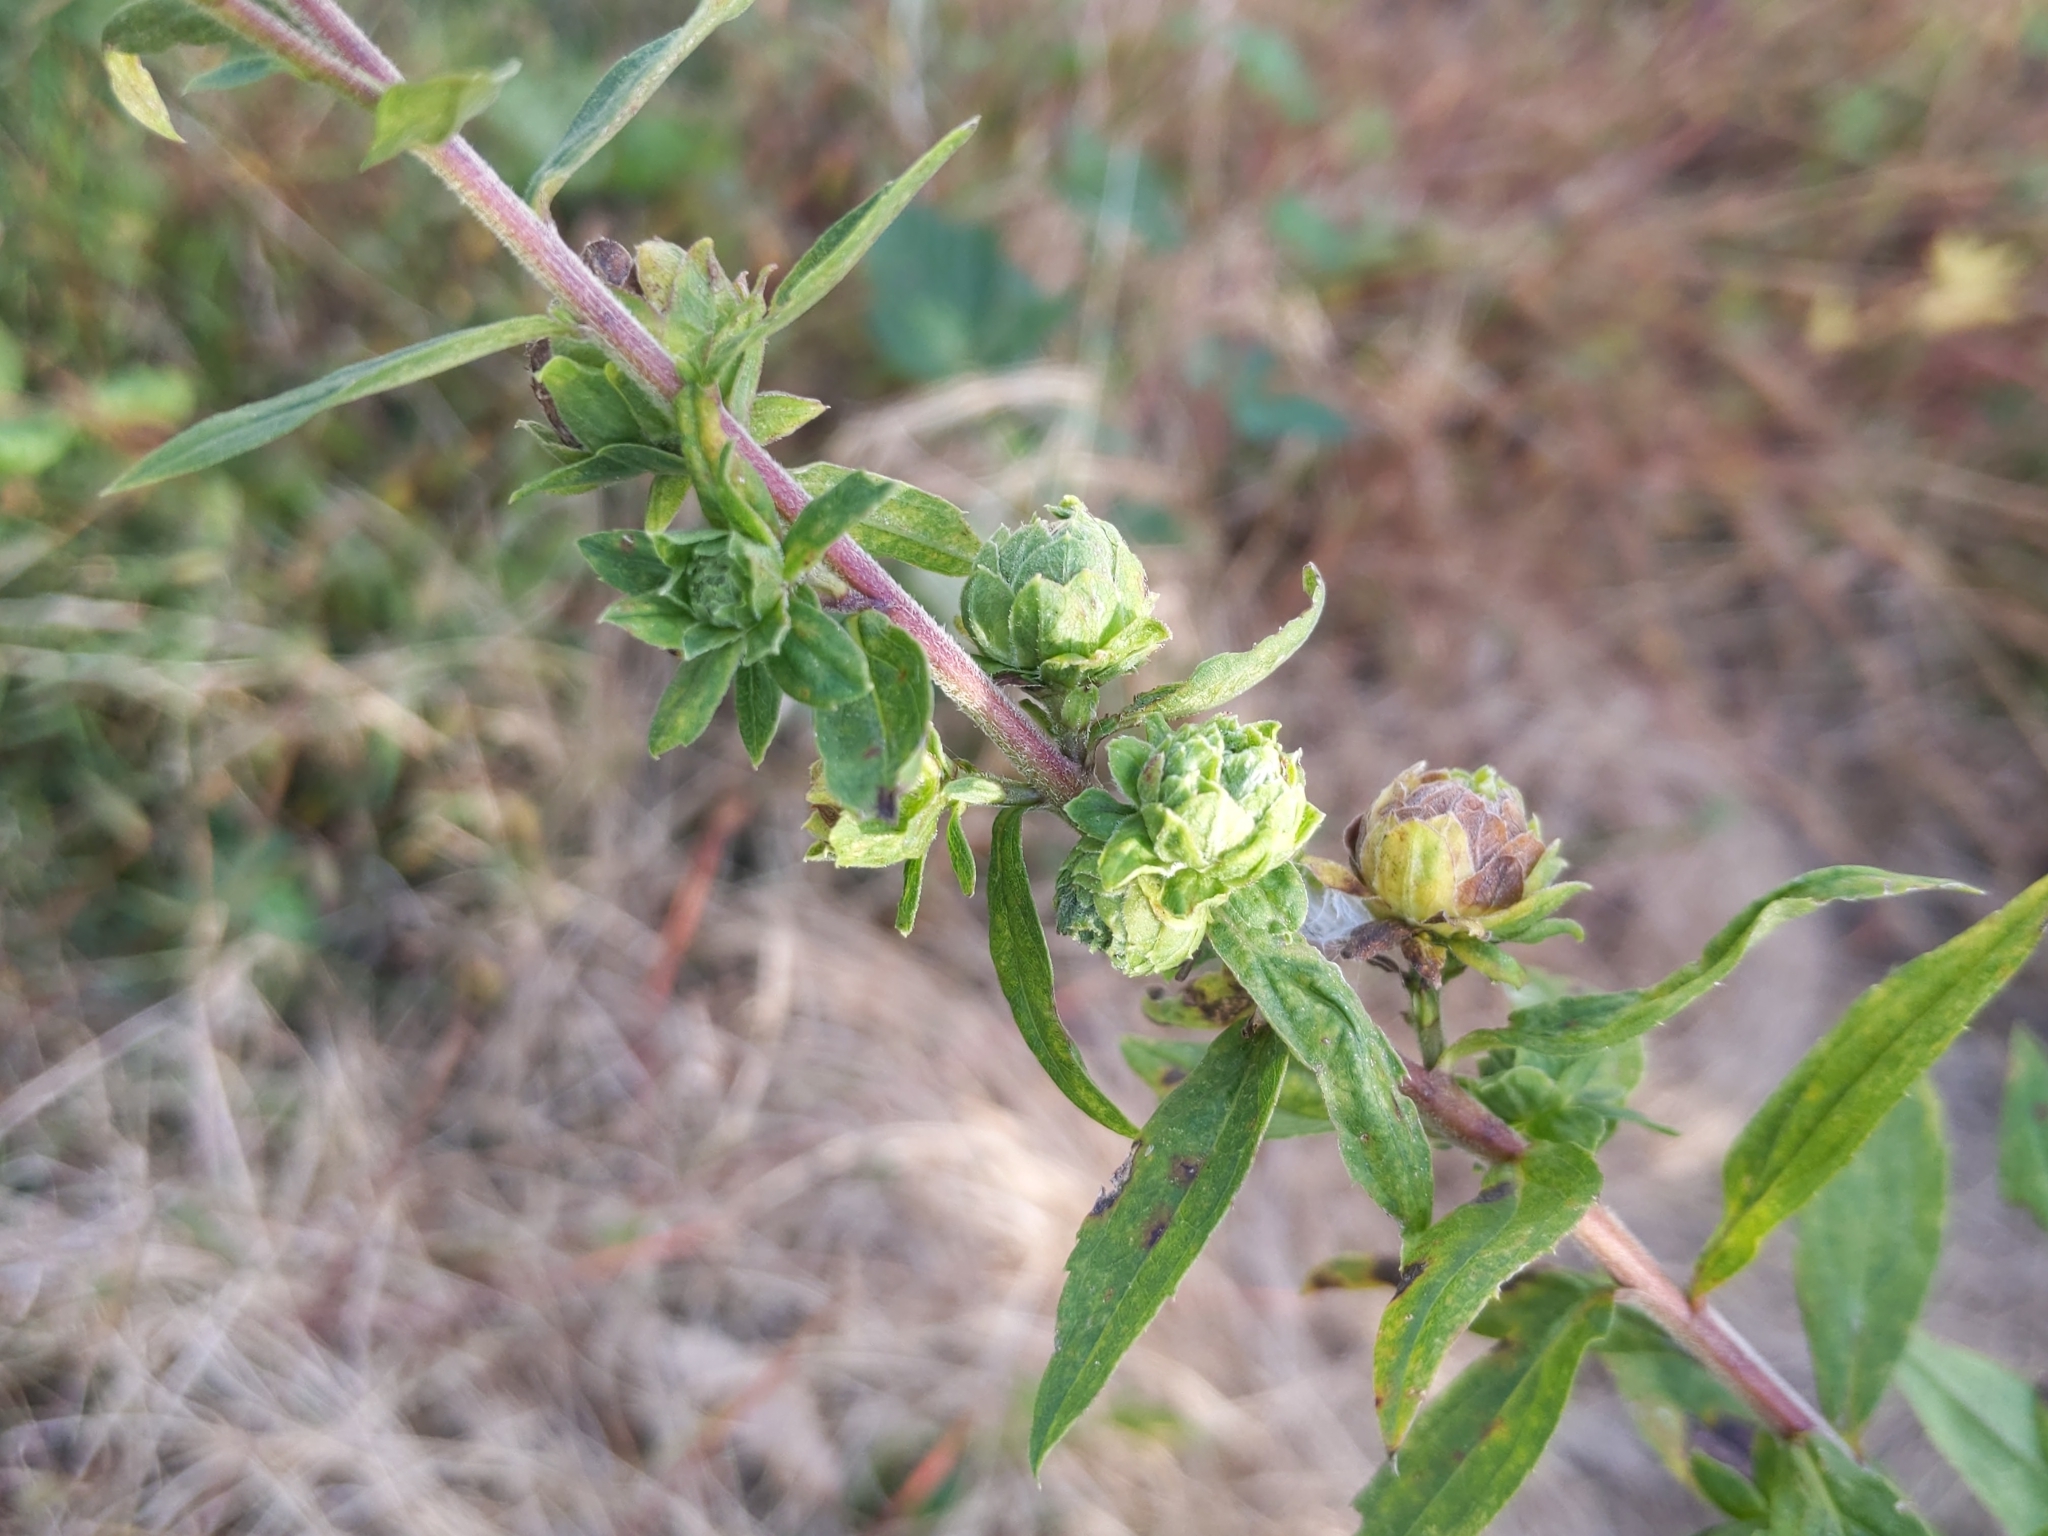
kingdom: Animalia
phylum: Arthropoda
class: Insecta
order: Diptera
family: Tephritidae
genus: Procecidochares
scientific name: Procecidochares atra
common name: Goldenrod brussels sprout gall fly
